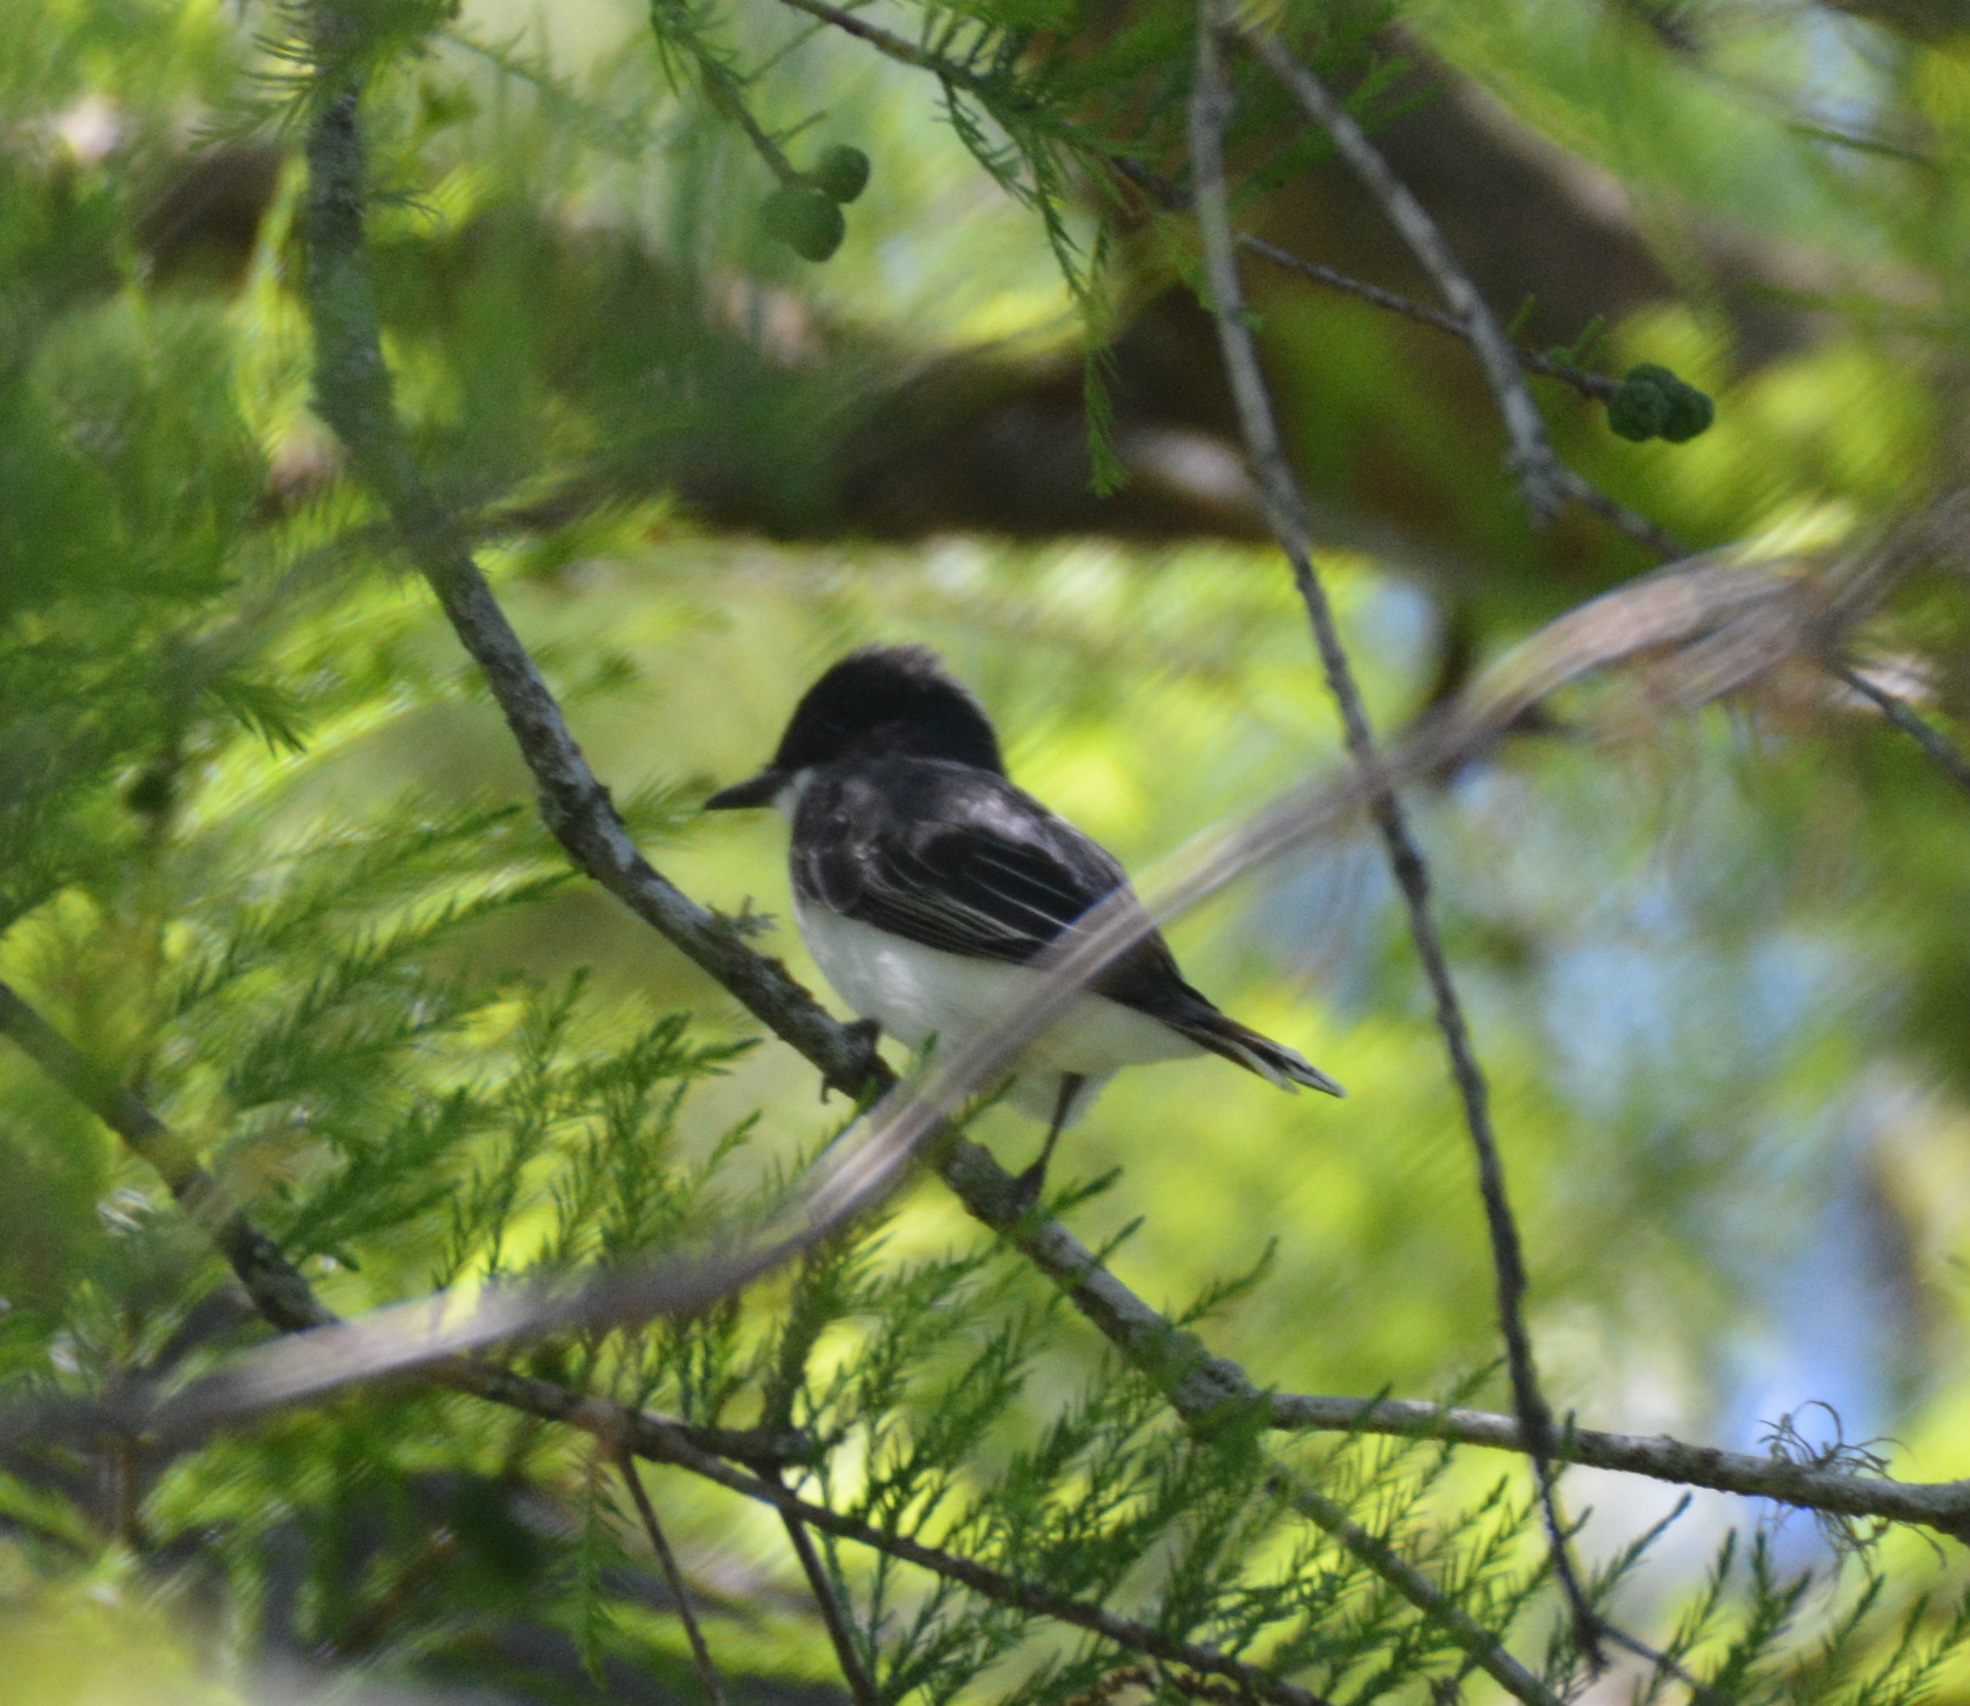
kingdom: Animalia
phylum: Chordata
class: Aves
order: Passeriformes
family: Tyrannidae
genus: Tyrannus
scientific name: Tyrannus tyrannus
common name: Eastern kingbird
